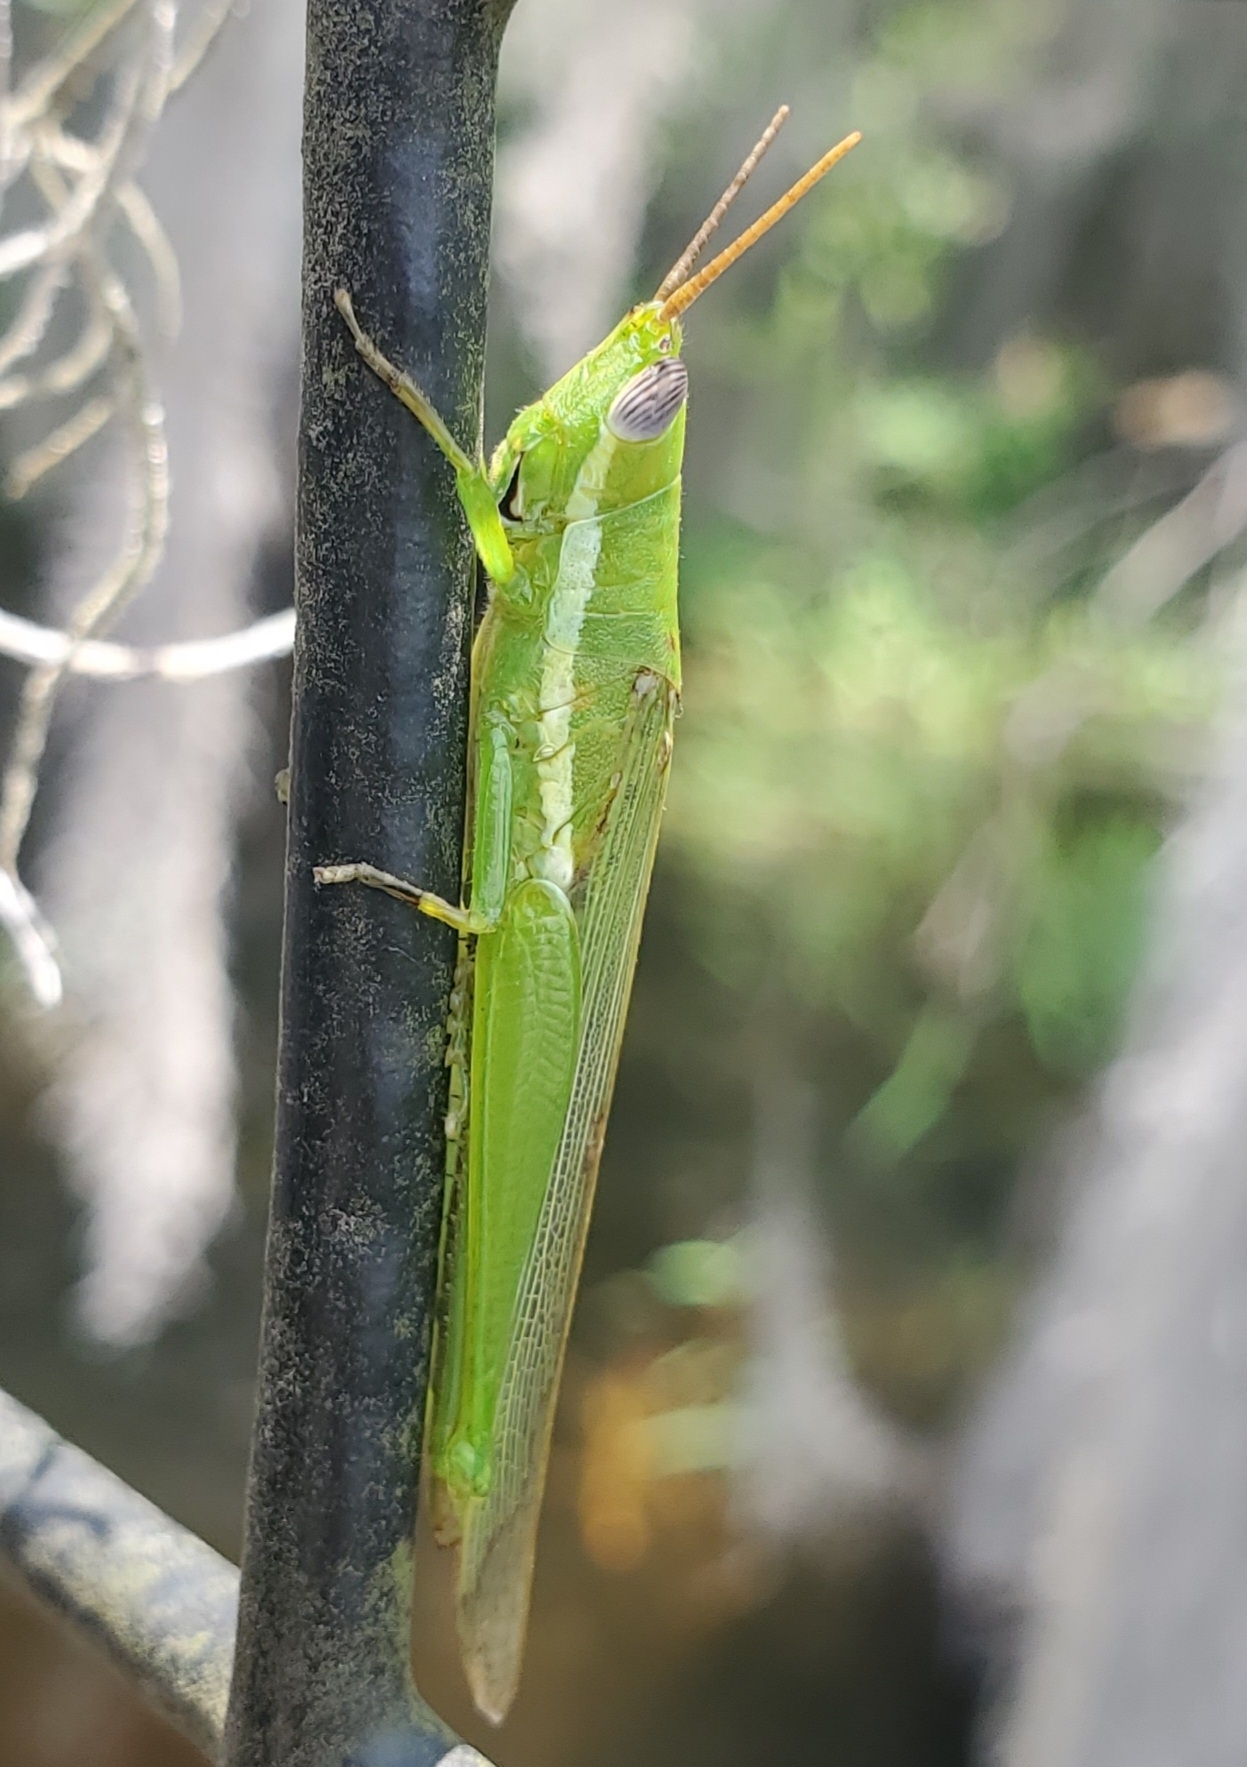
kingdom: Animalia
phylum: Arthropoda
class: Insecta
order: Orthoptera
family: Acrididae
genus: Stenacris
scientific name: Stenacris vitreipennis
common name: Glassy-winged toothpick grasshopper
